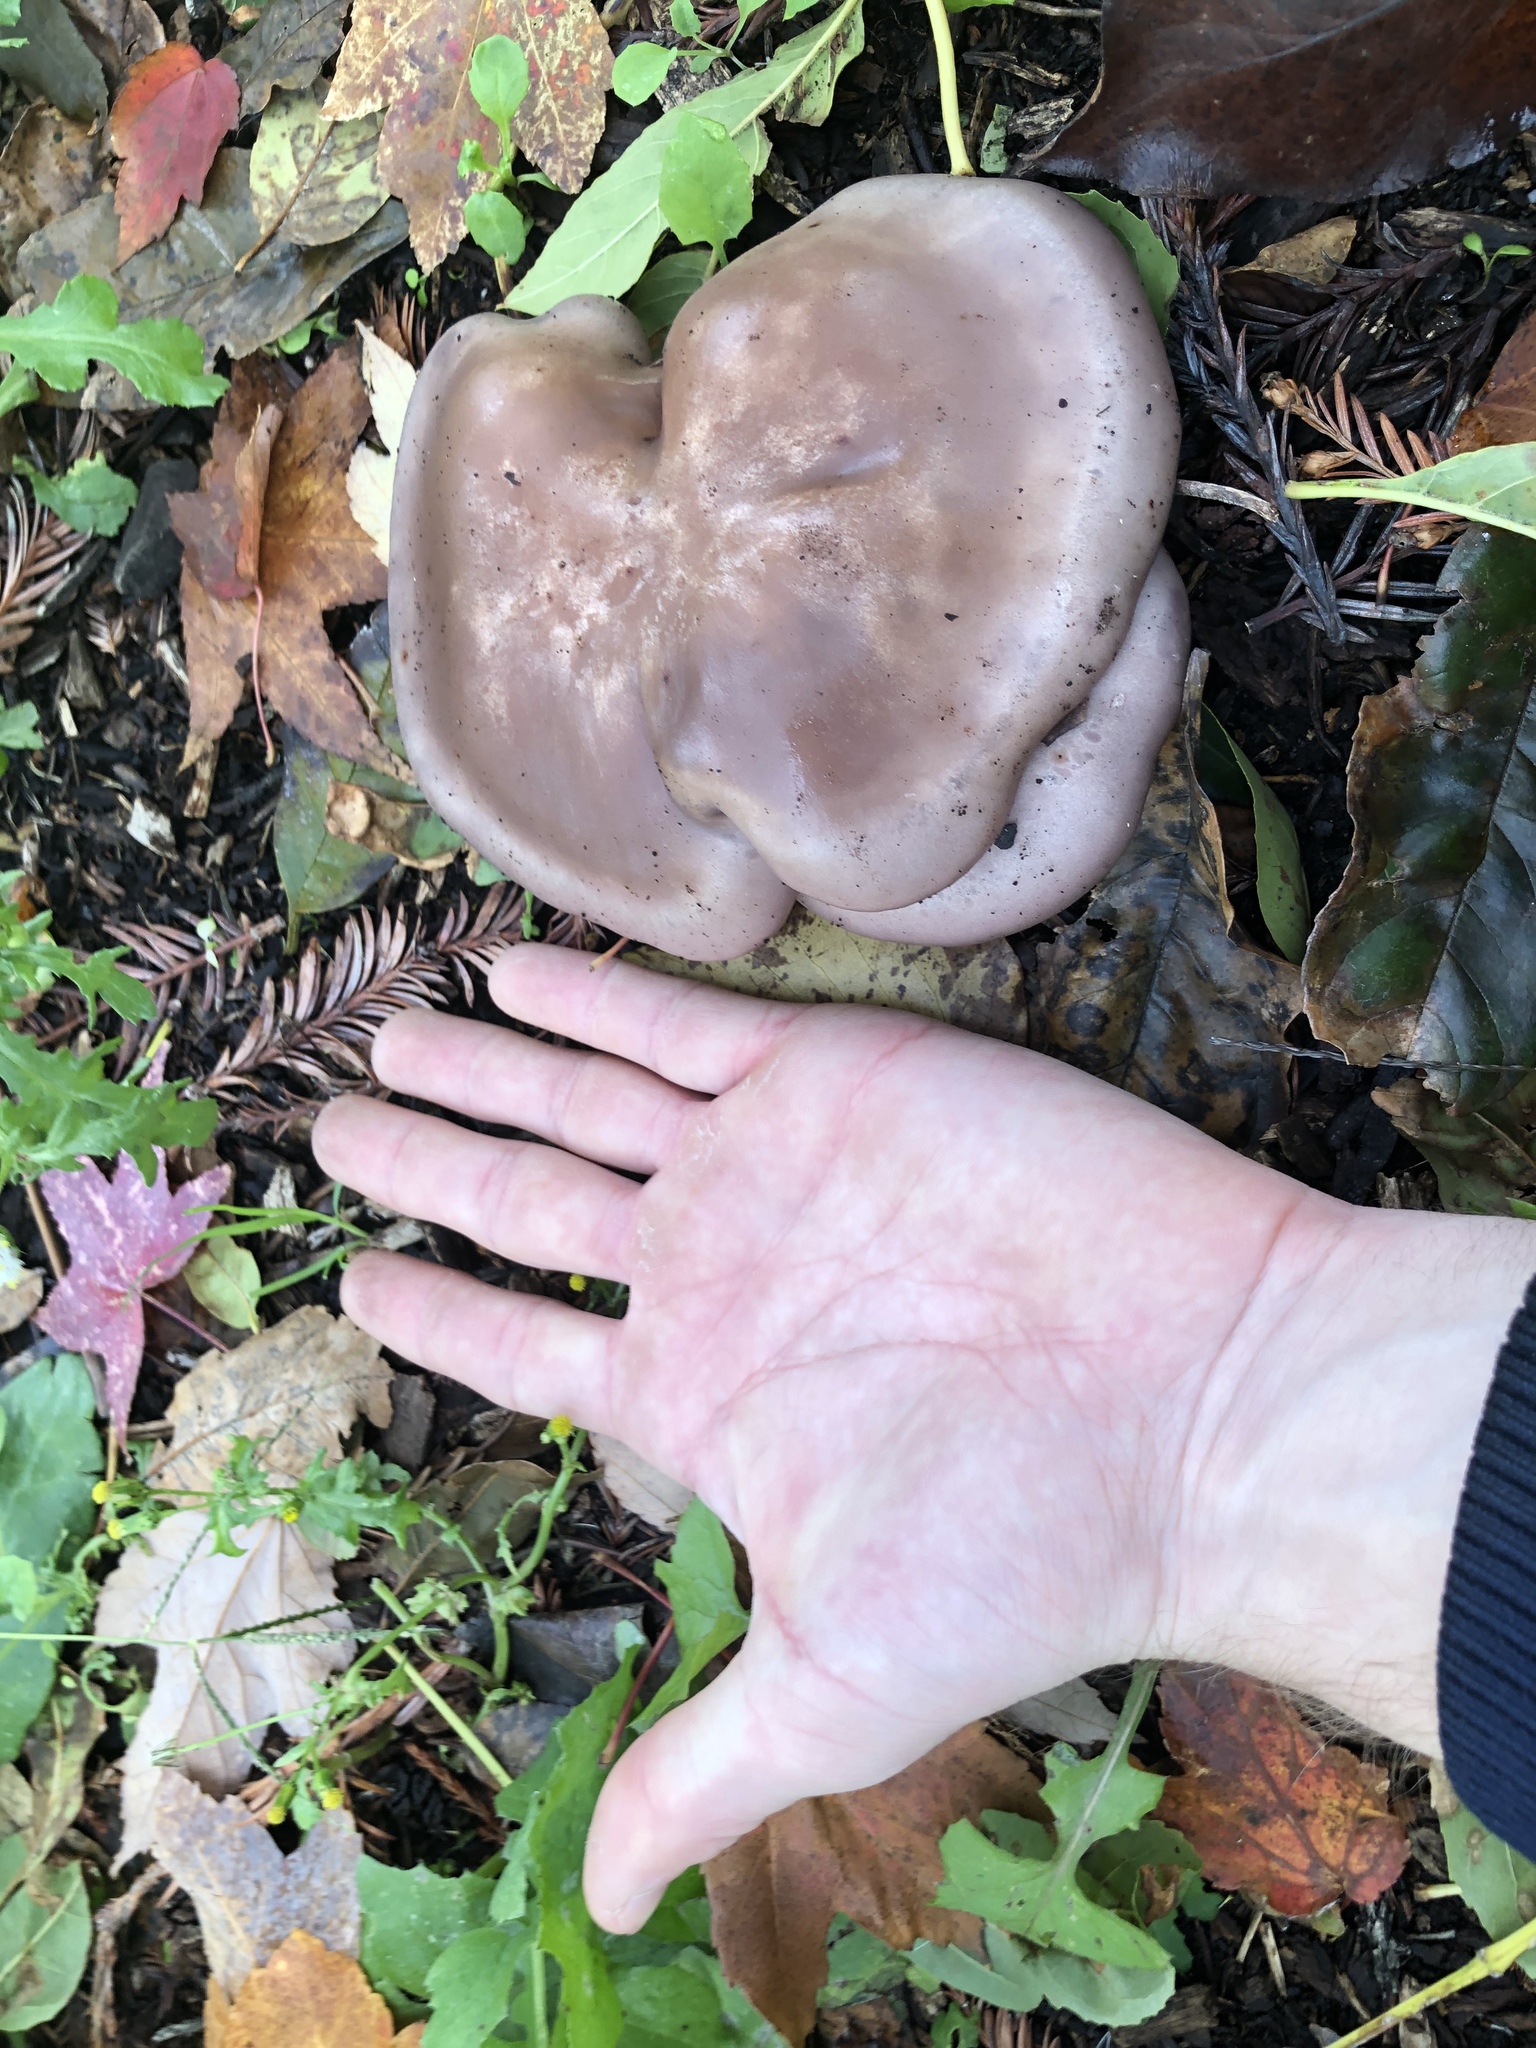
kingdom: Fungi
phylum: Basidiomycota
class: Agaricomycetes
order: Agaricales
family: Tricholomataceae
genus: Collybia
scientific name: Collybia
